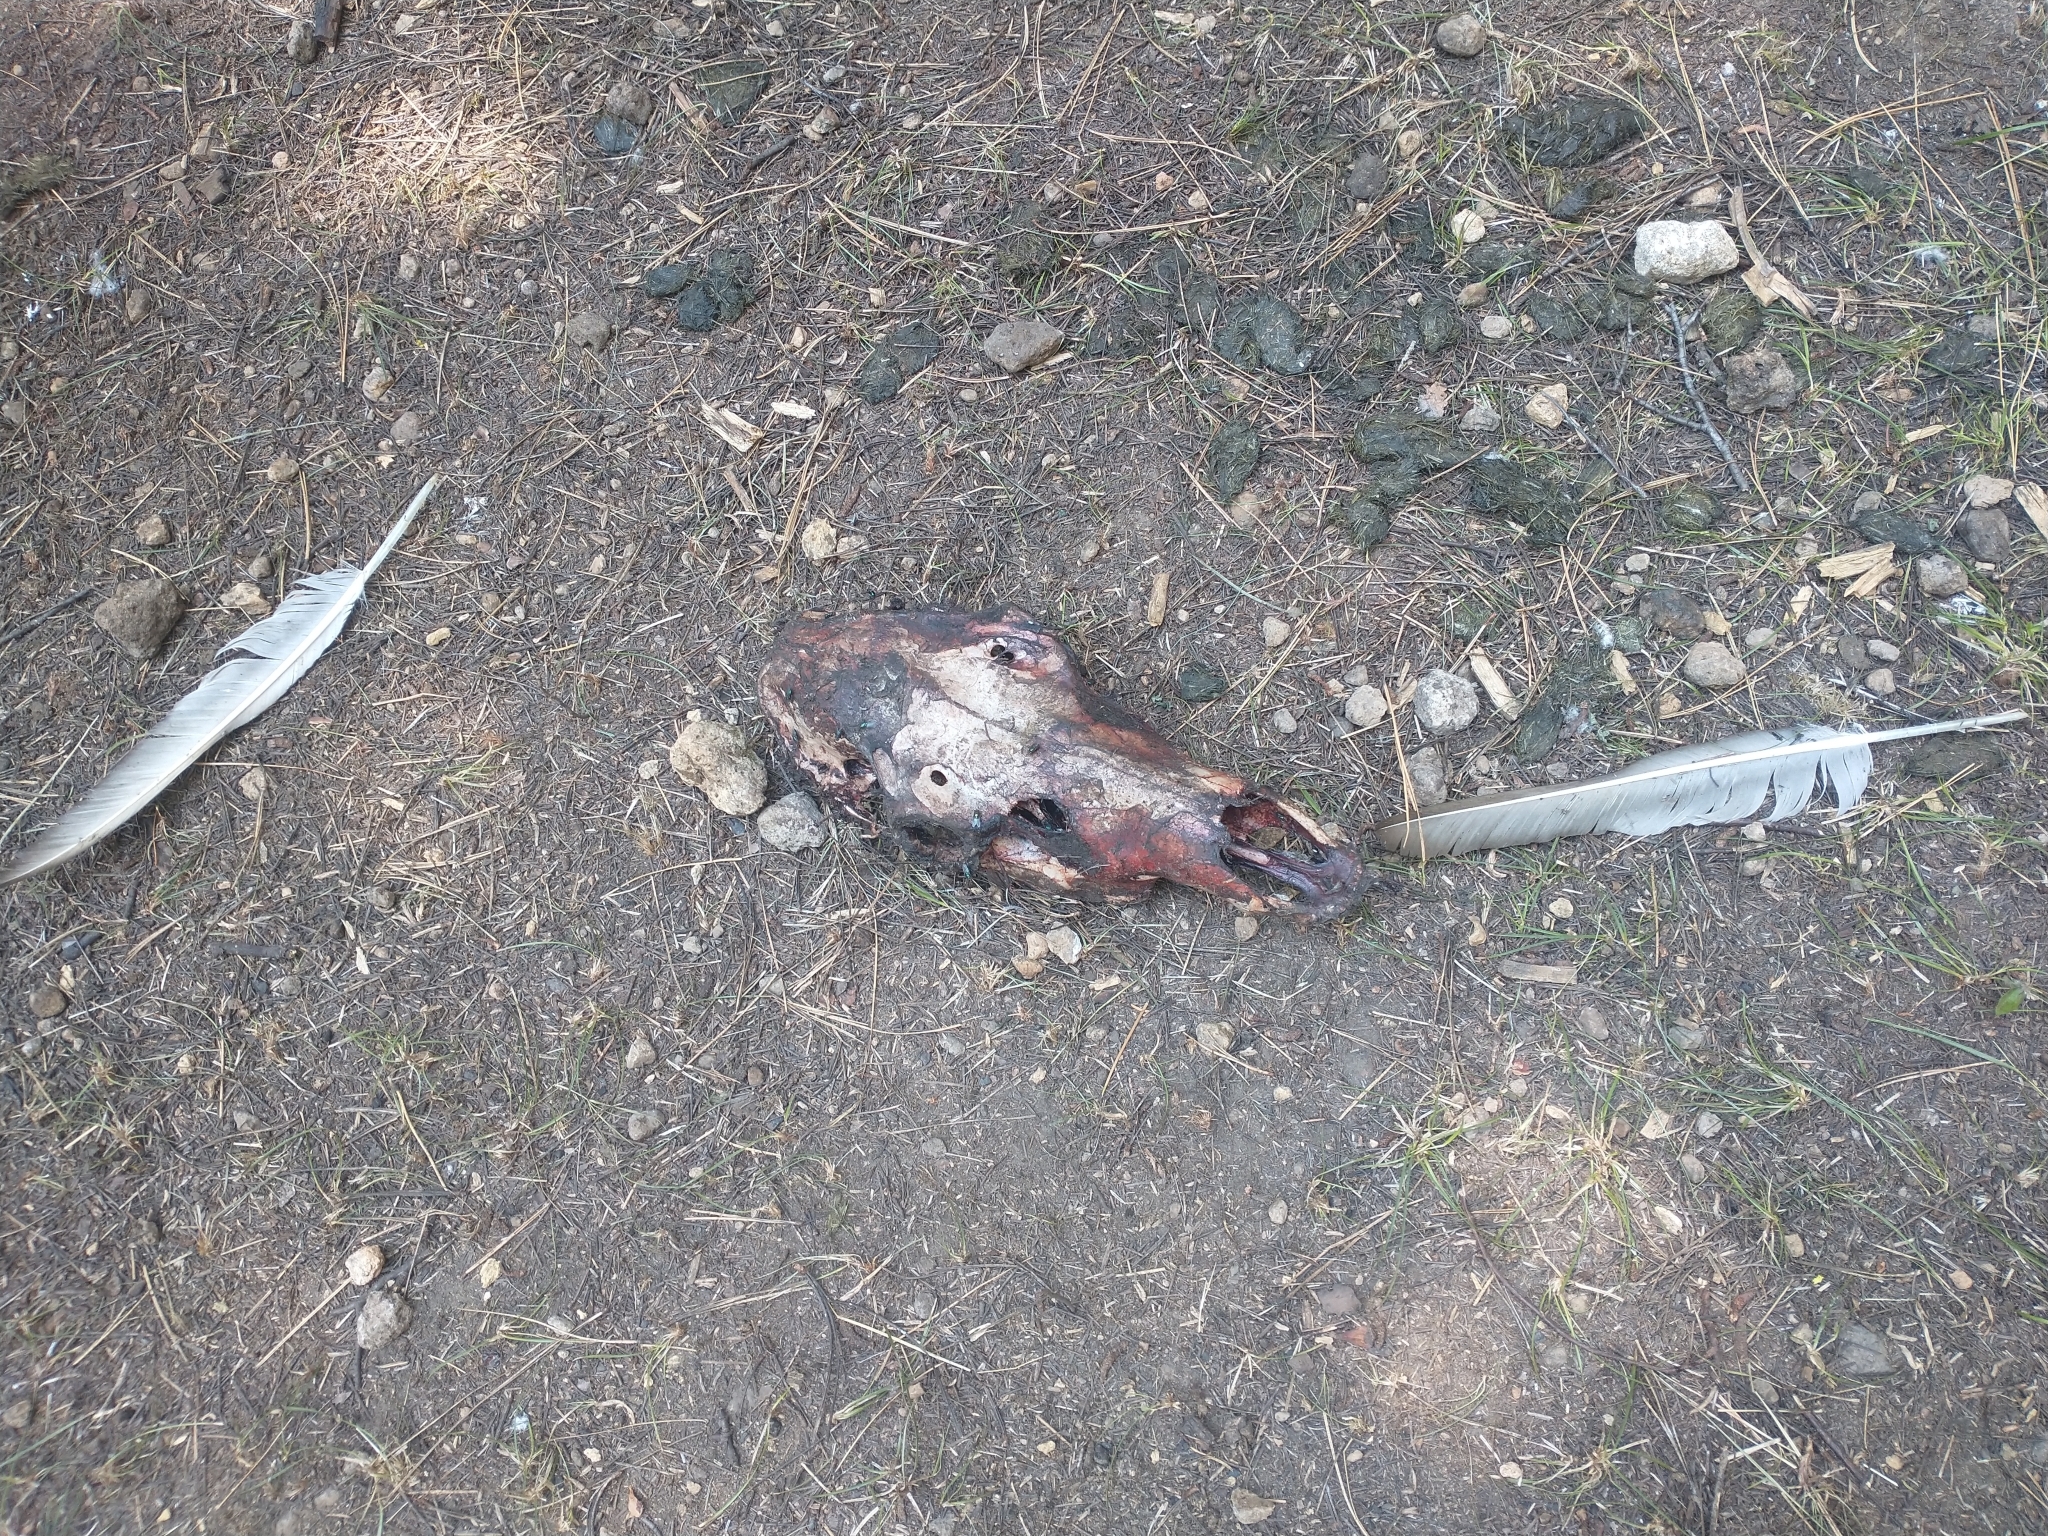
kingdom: Animalia
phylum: Chordata
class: Aves
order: Accipitriformes
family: Cathartidae
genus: Cathartes
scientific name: Cathartes aura
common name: Turkey vulture
